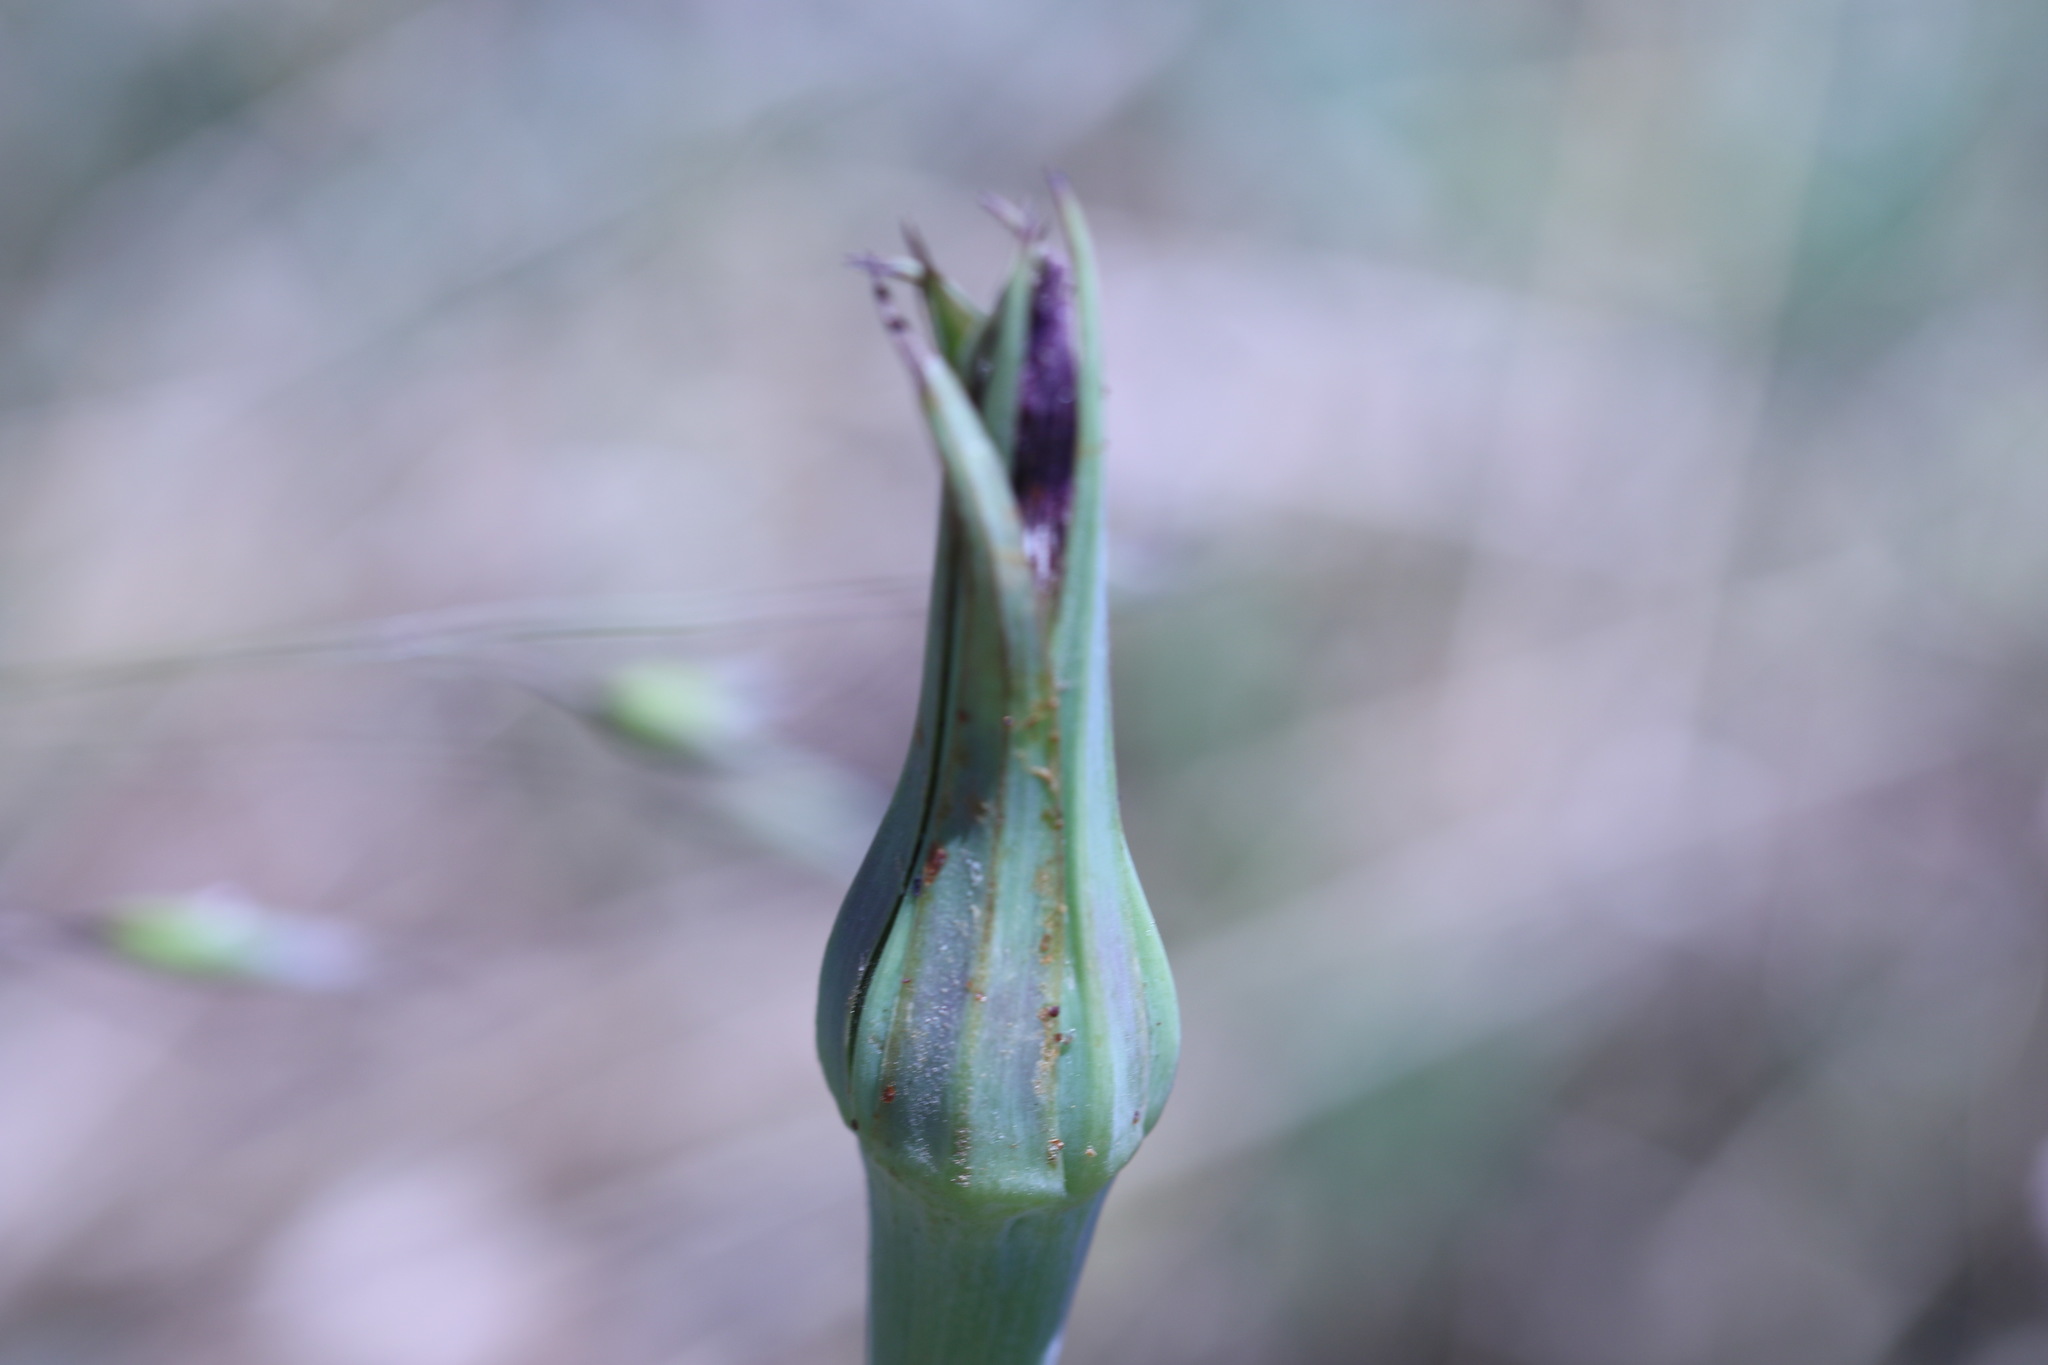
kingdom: Plantae
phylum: Tracheophyta
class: Magnoliopsida
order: Asterales
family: Asteraceae
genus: Tragopogon
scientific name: Tragopogon porrifolius
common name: Salsify
